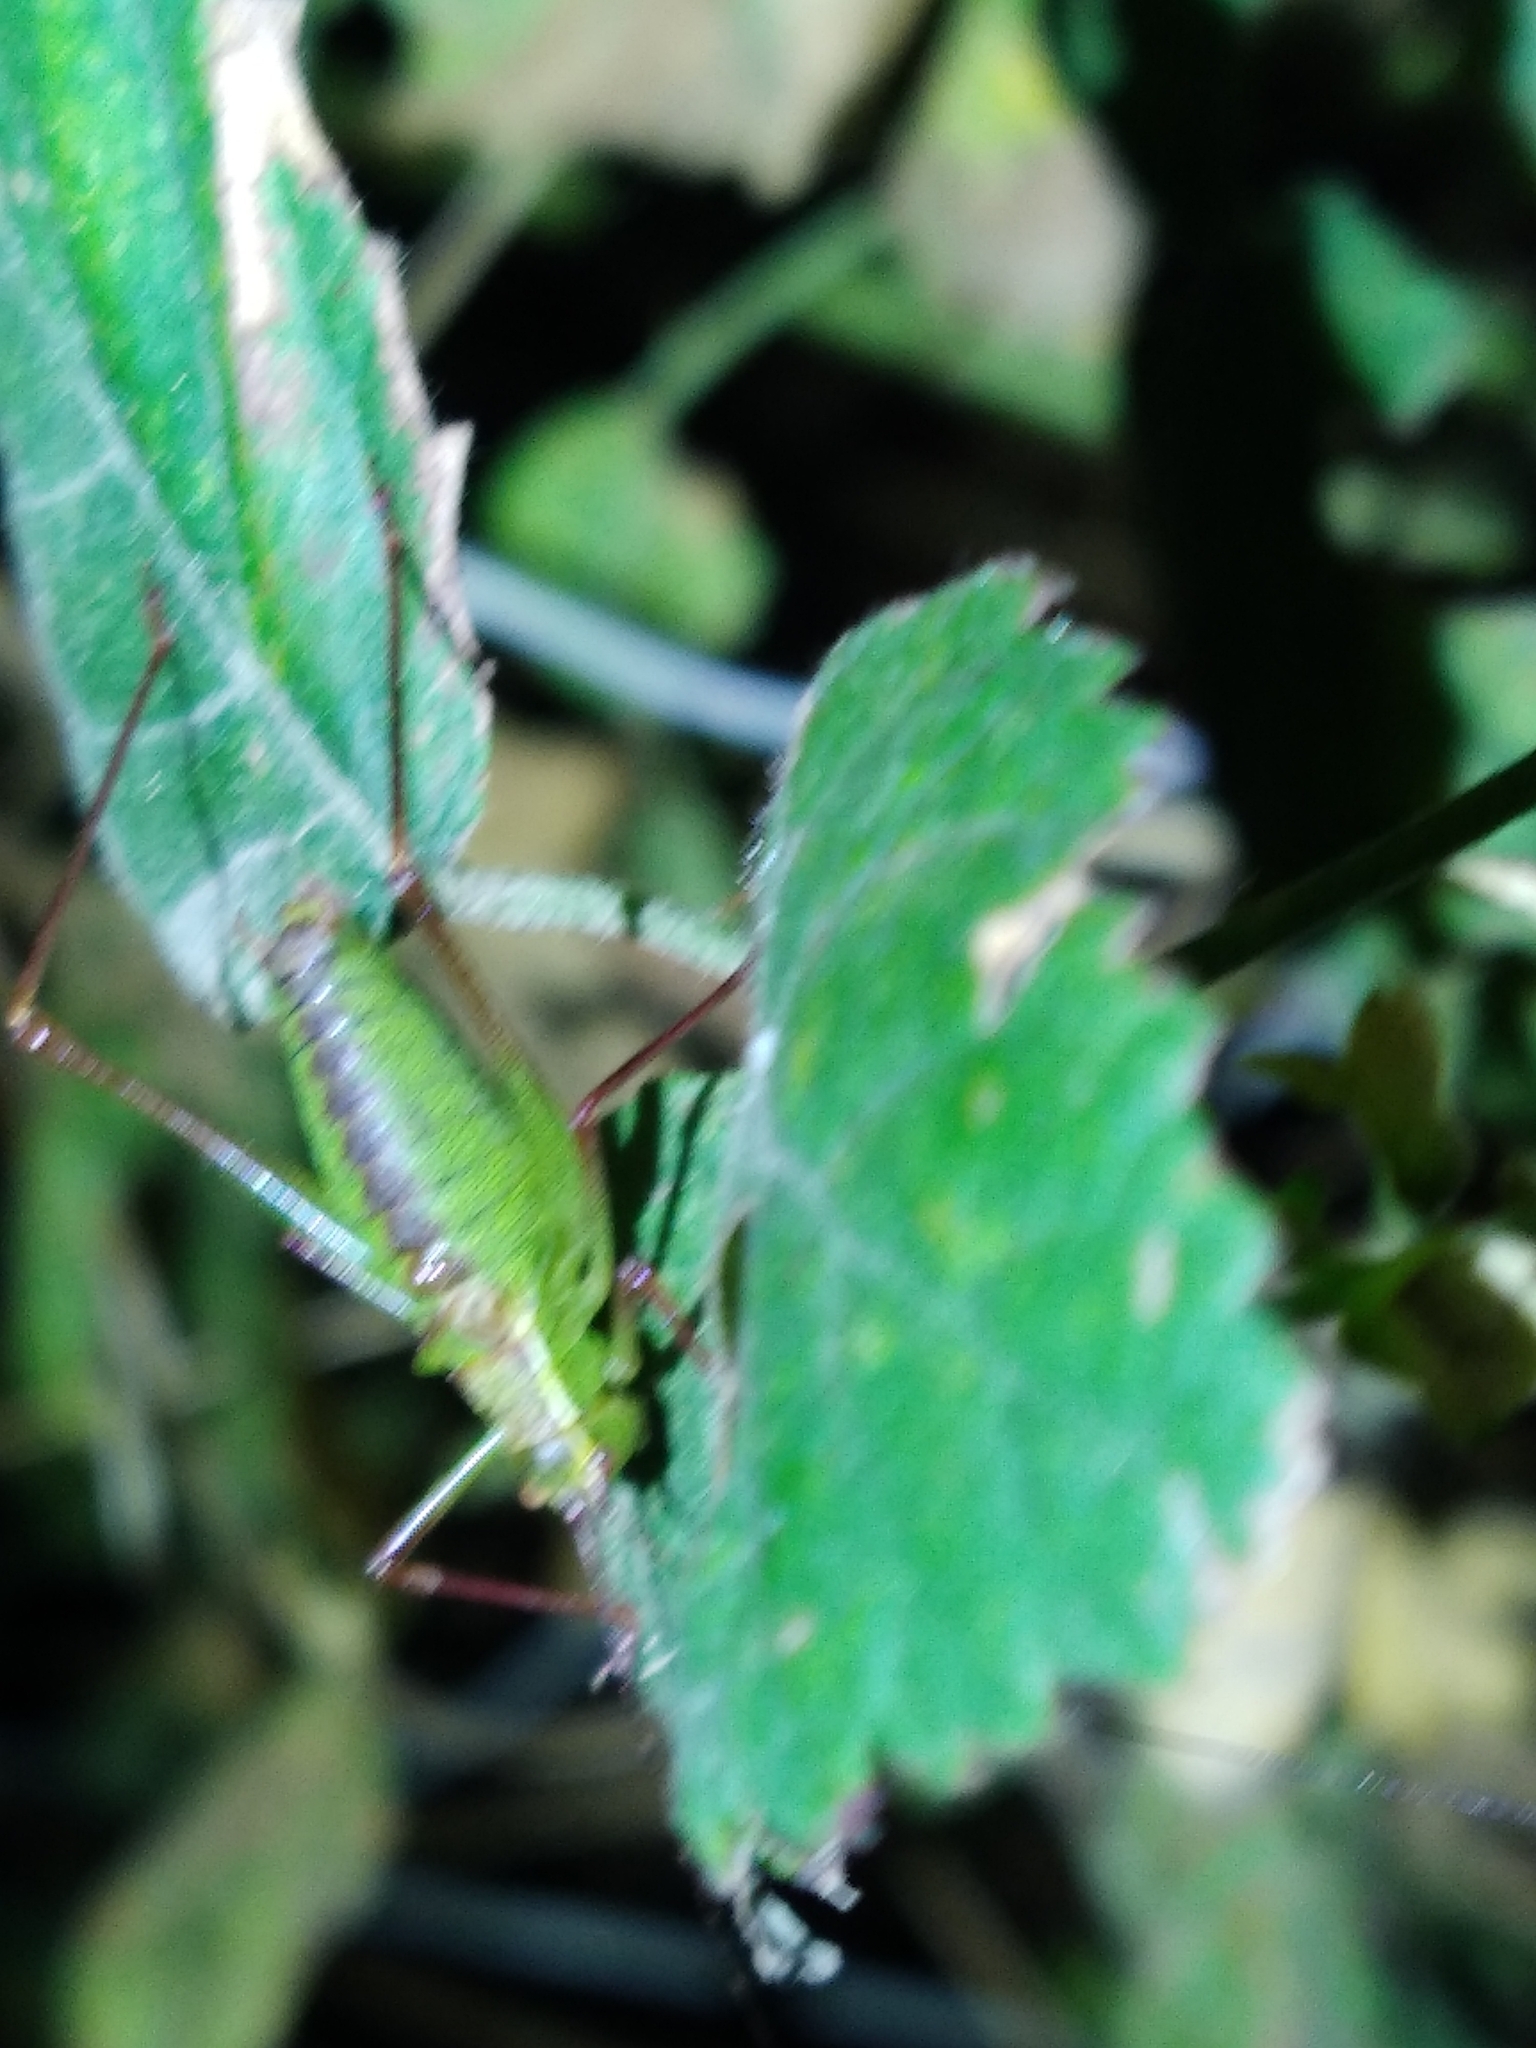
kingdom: Animalia
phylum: Arthropoda
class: Insecta
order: Orthoptera
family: Tettigoniidae
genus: Leptophyes
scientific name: Leptophyes punctatissima
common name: Speckled bush-cricket
